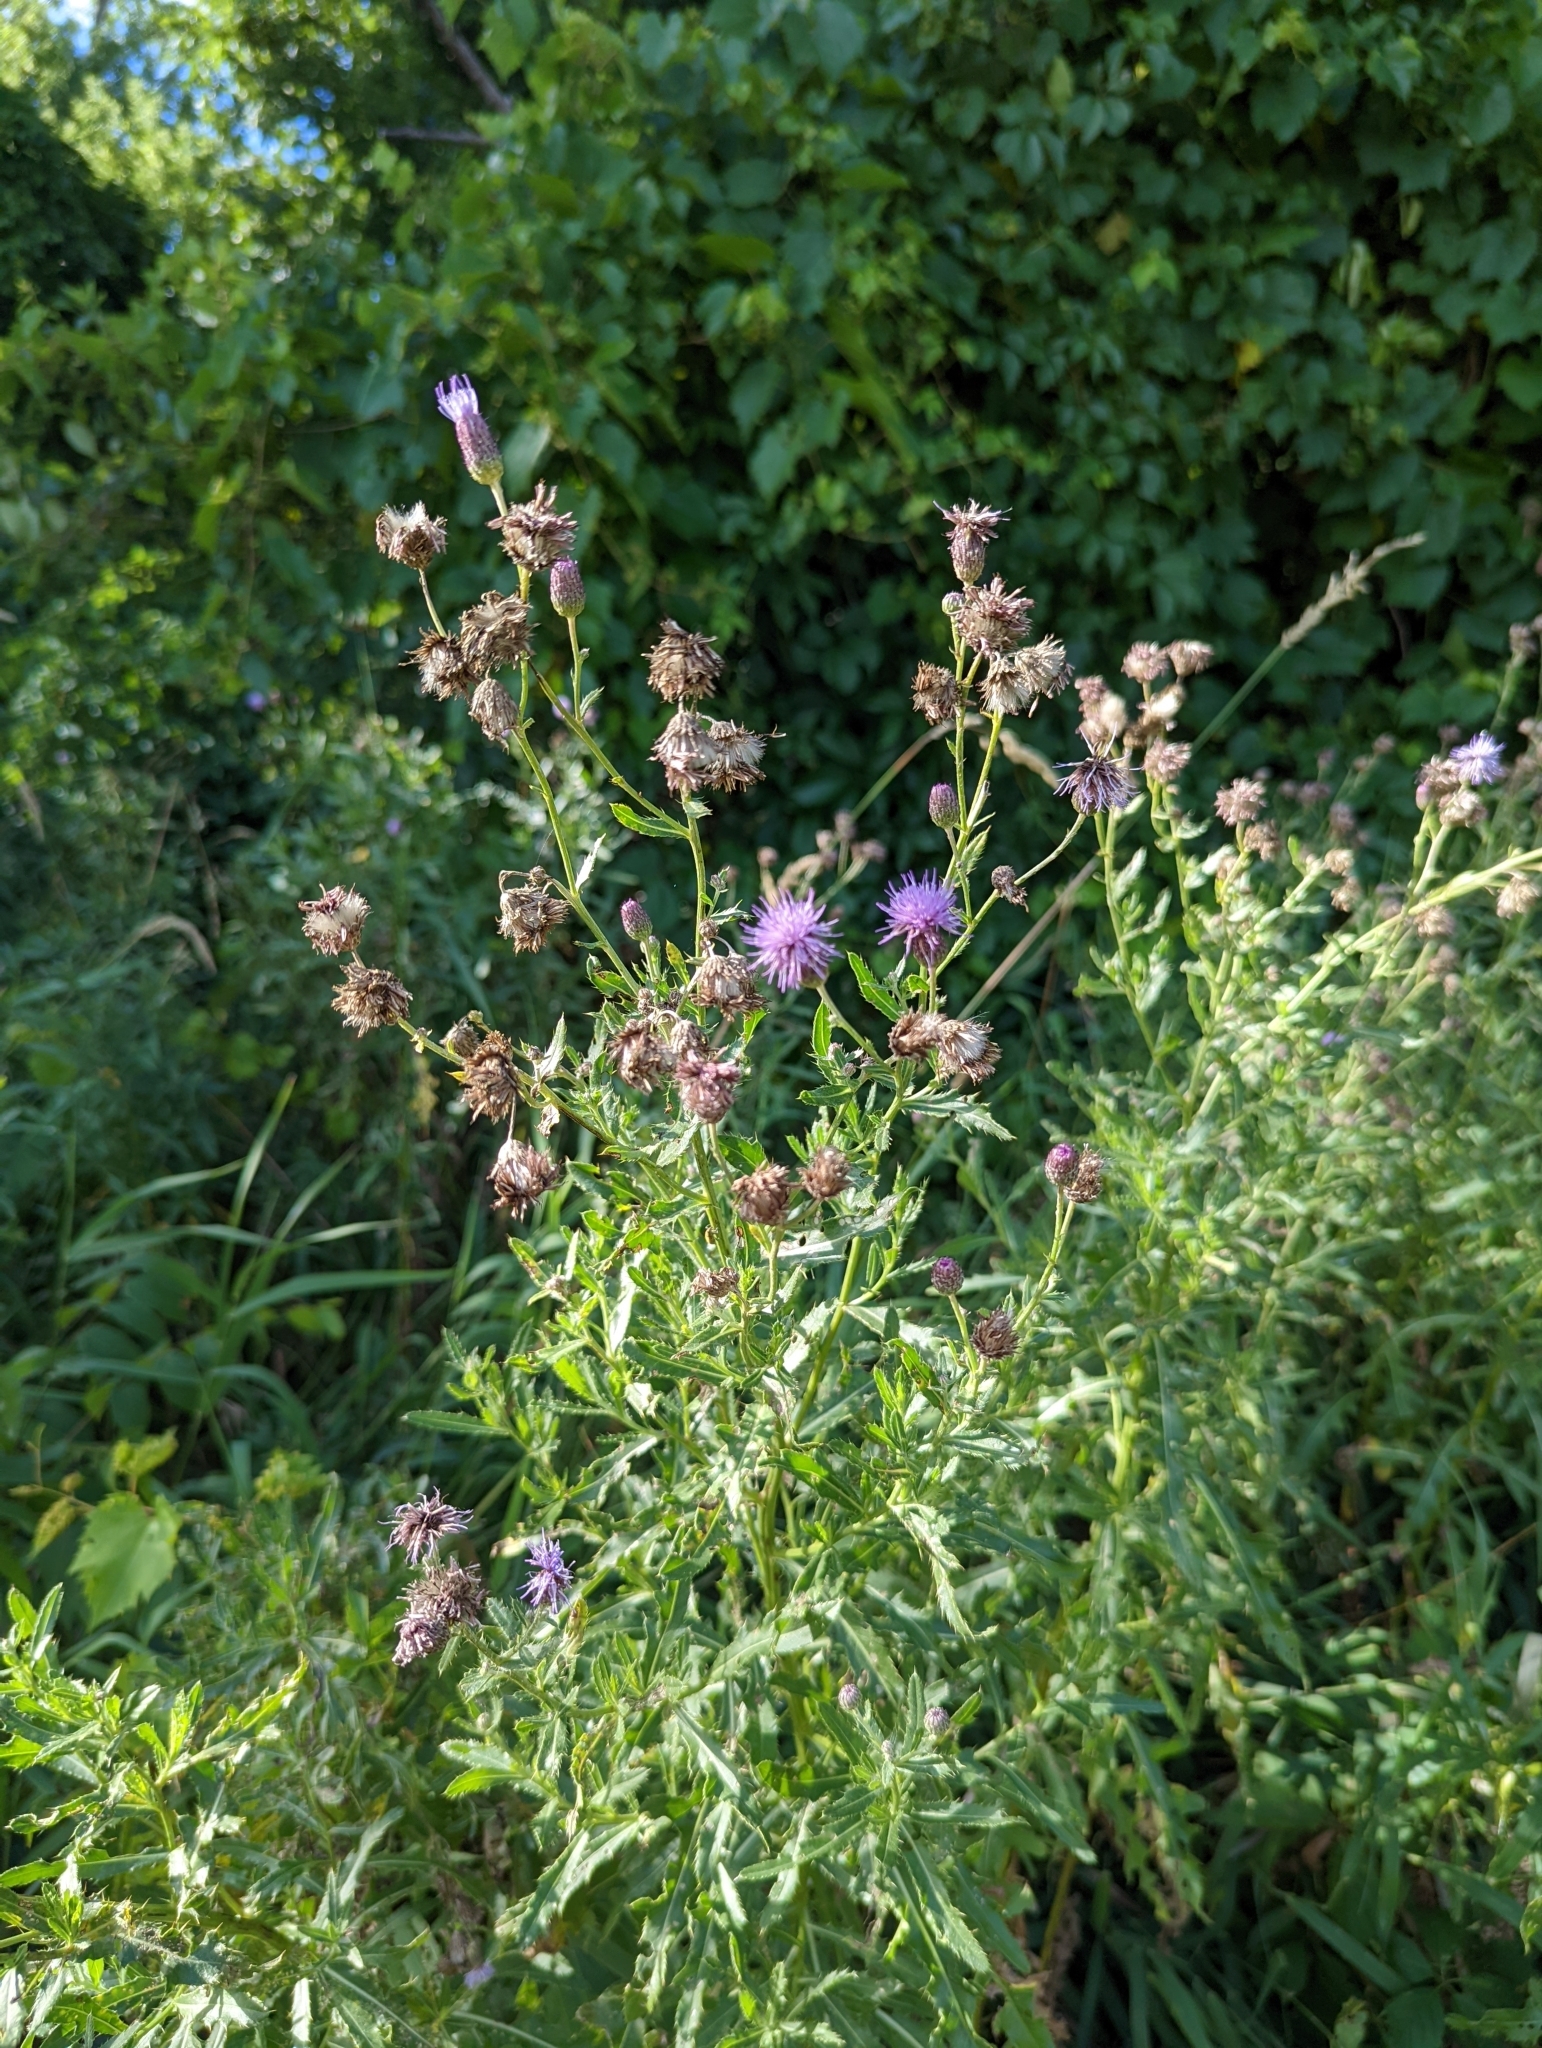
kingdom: Plantae
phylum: Tracheophyta
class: Magnoliopsida
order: Asterales
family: Asteraceae
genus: Cirsium
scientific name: Cirsium arvense
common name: Creeping thistle
